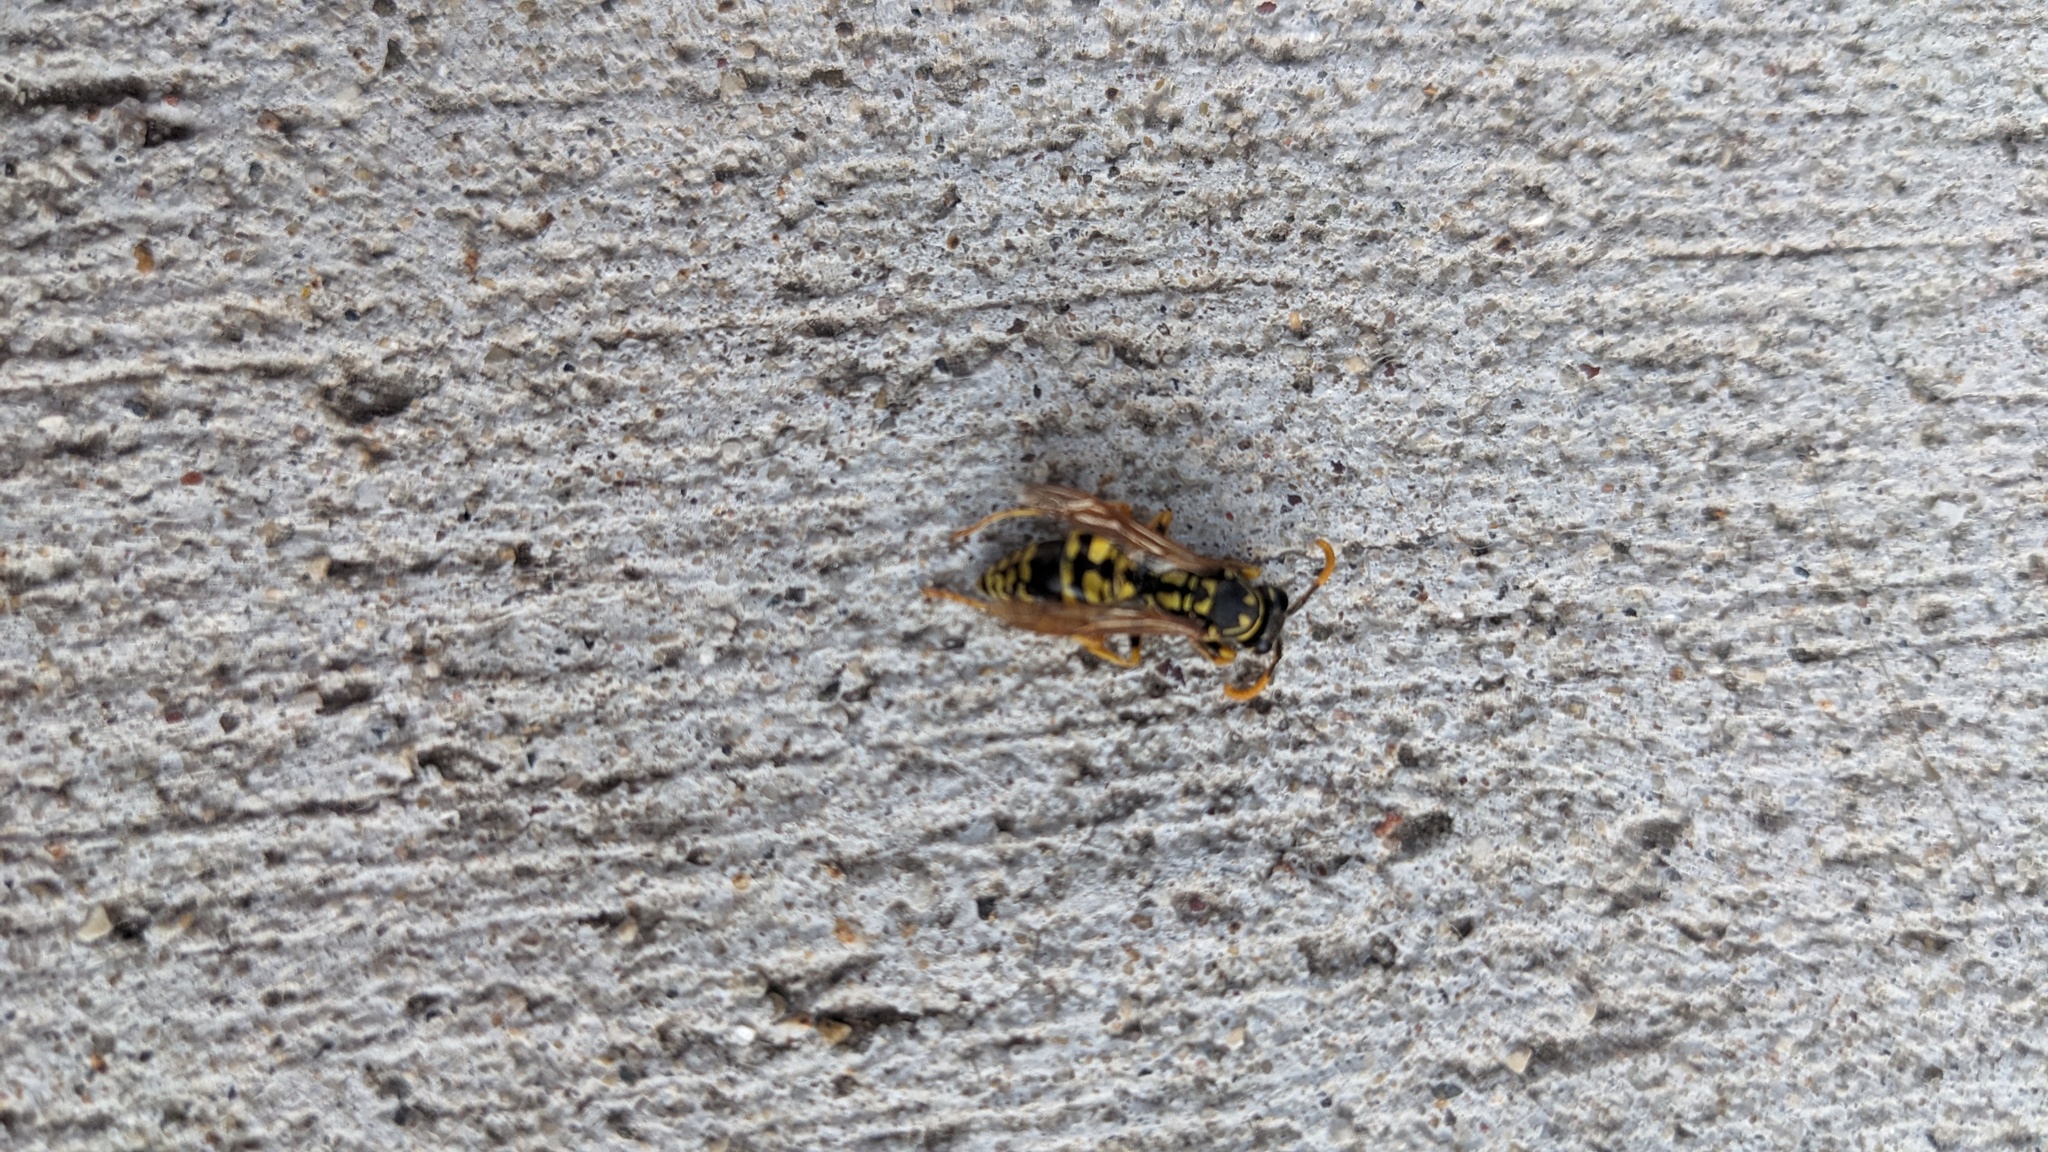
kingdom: Animalia
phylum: Arthropoda
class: Insecta
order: Hymenoptera
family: Eumenidae
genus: Polistes
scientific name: Polistes dominula
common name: Paper wasp
